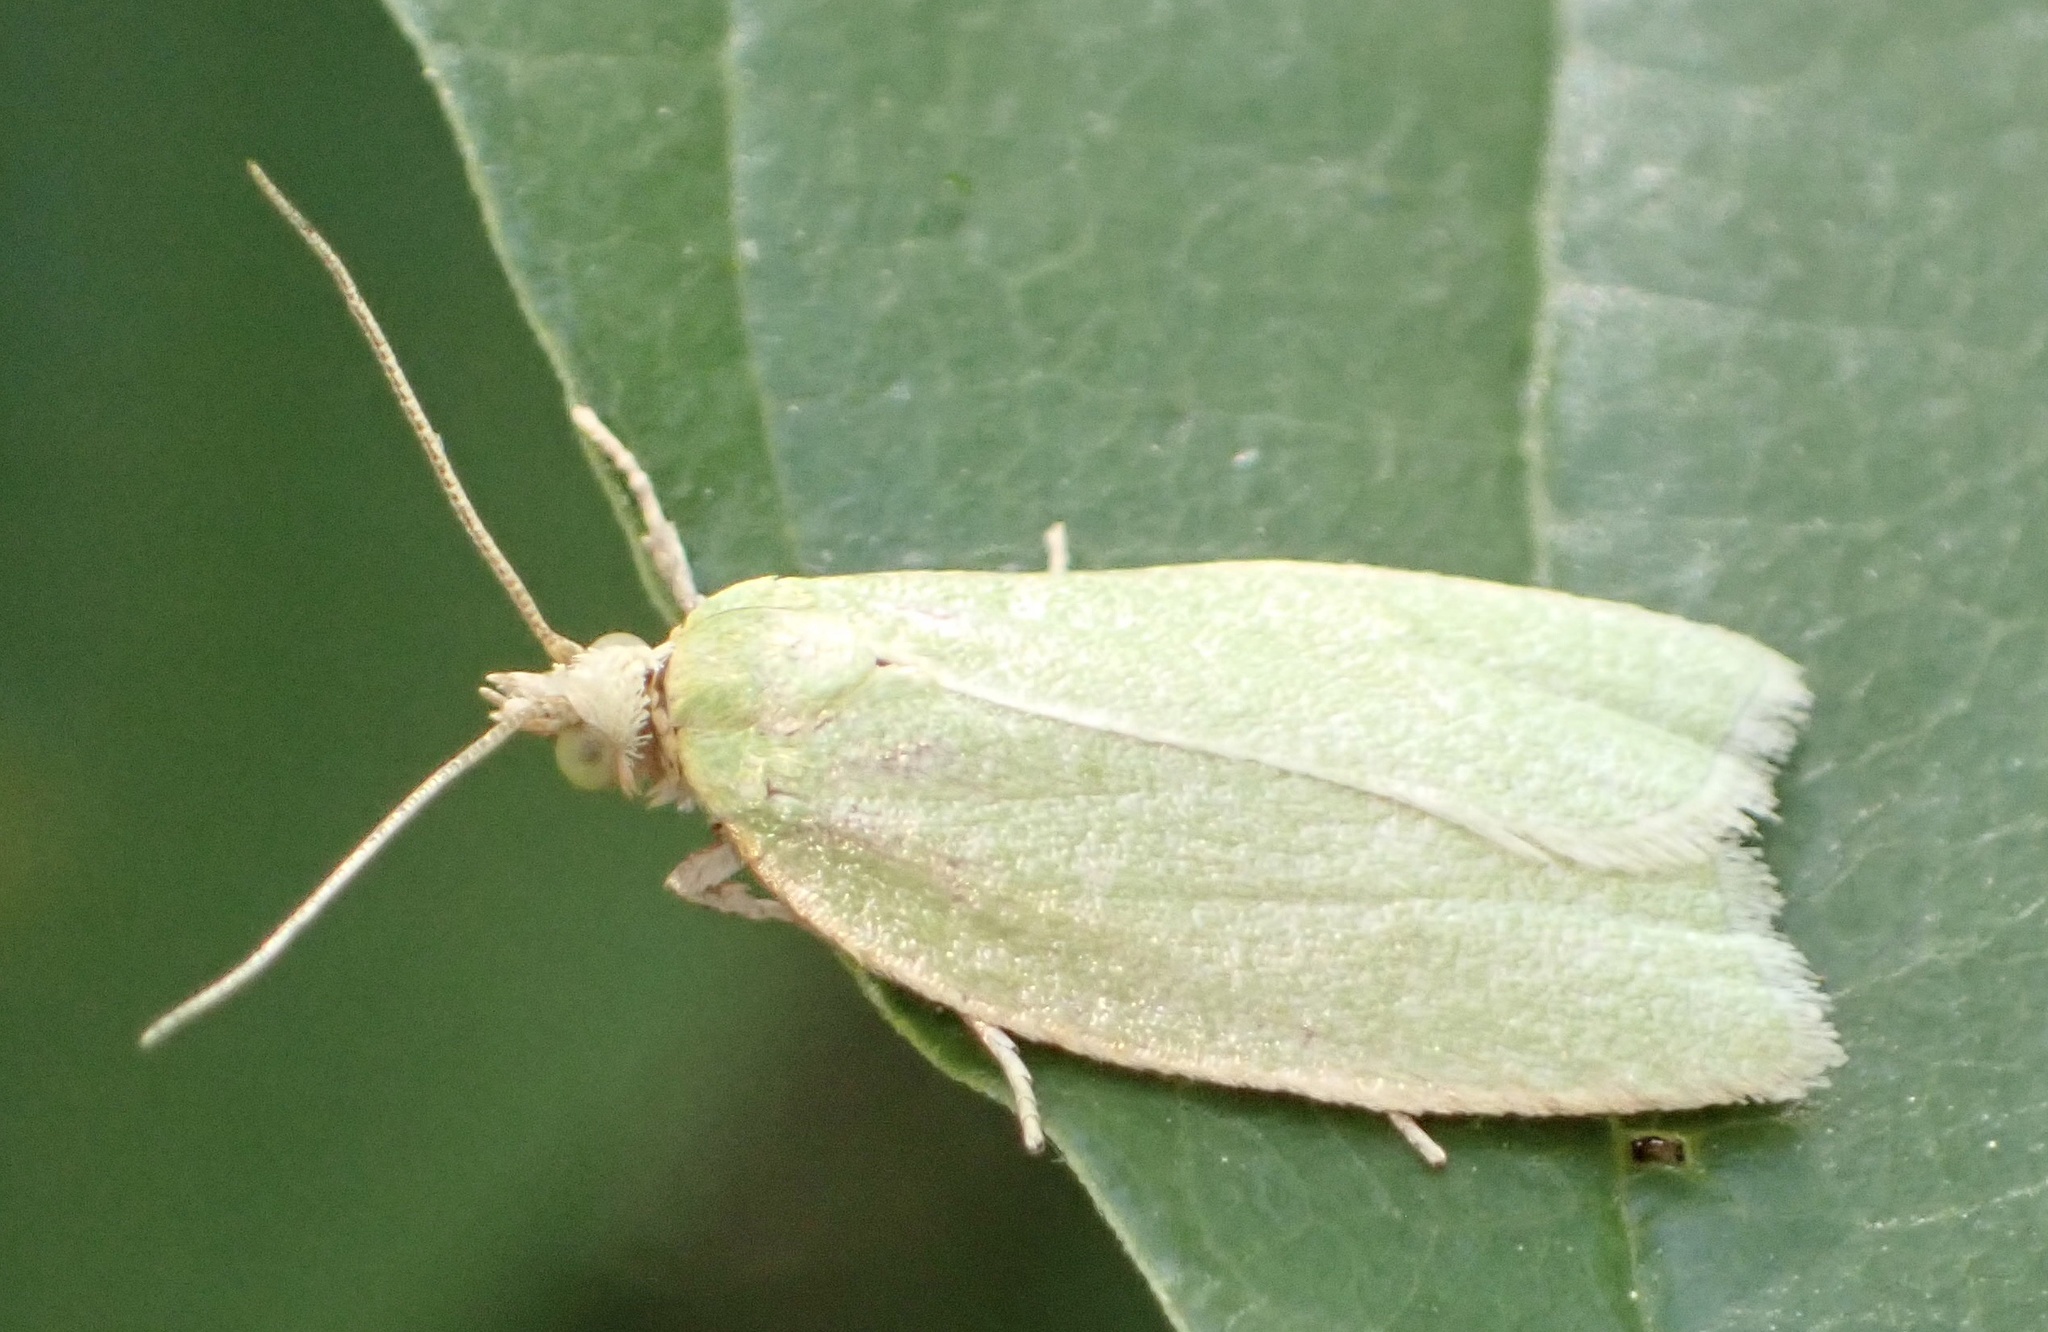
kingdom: Animalia
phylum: Arthropoda
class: Insecta
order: Lepidoptera
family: Tortricidae
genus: Tortrix
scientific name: Tortrix viridana
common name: Green oak tortrix
